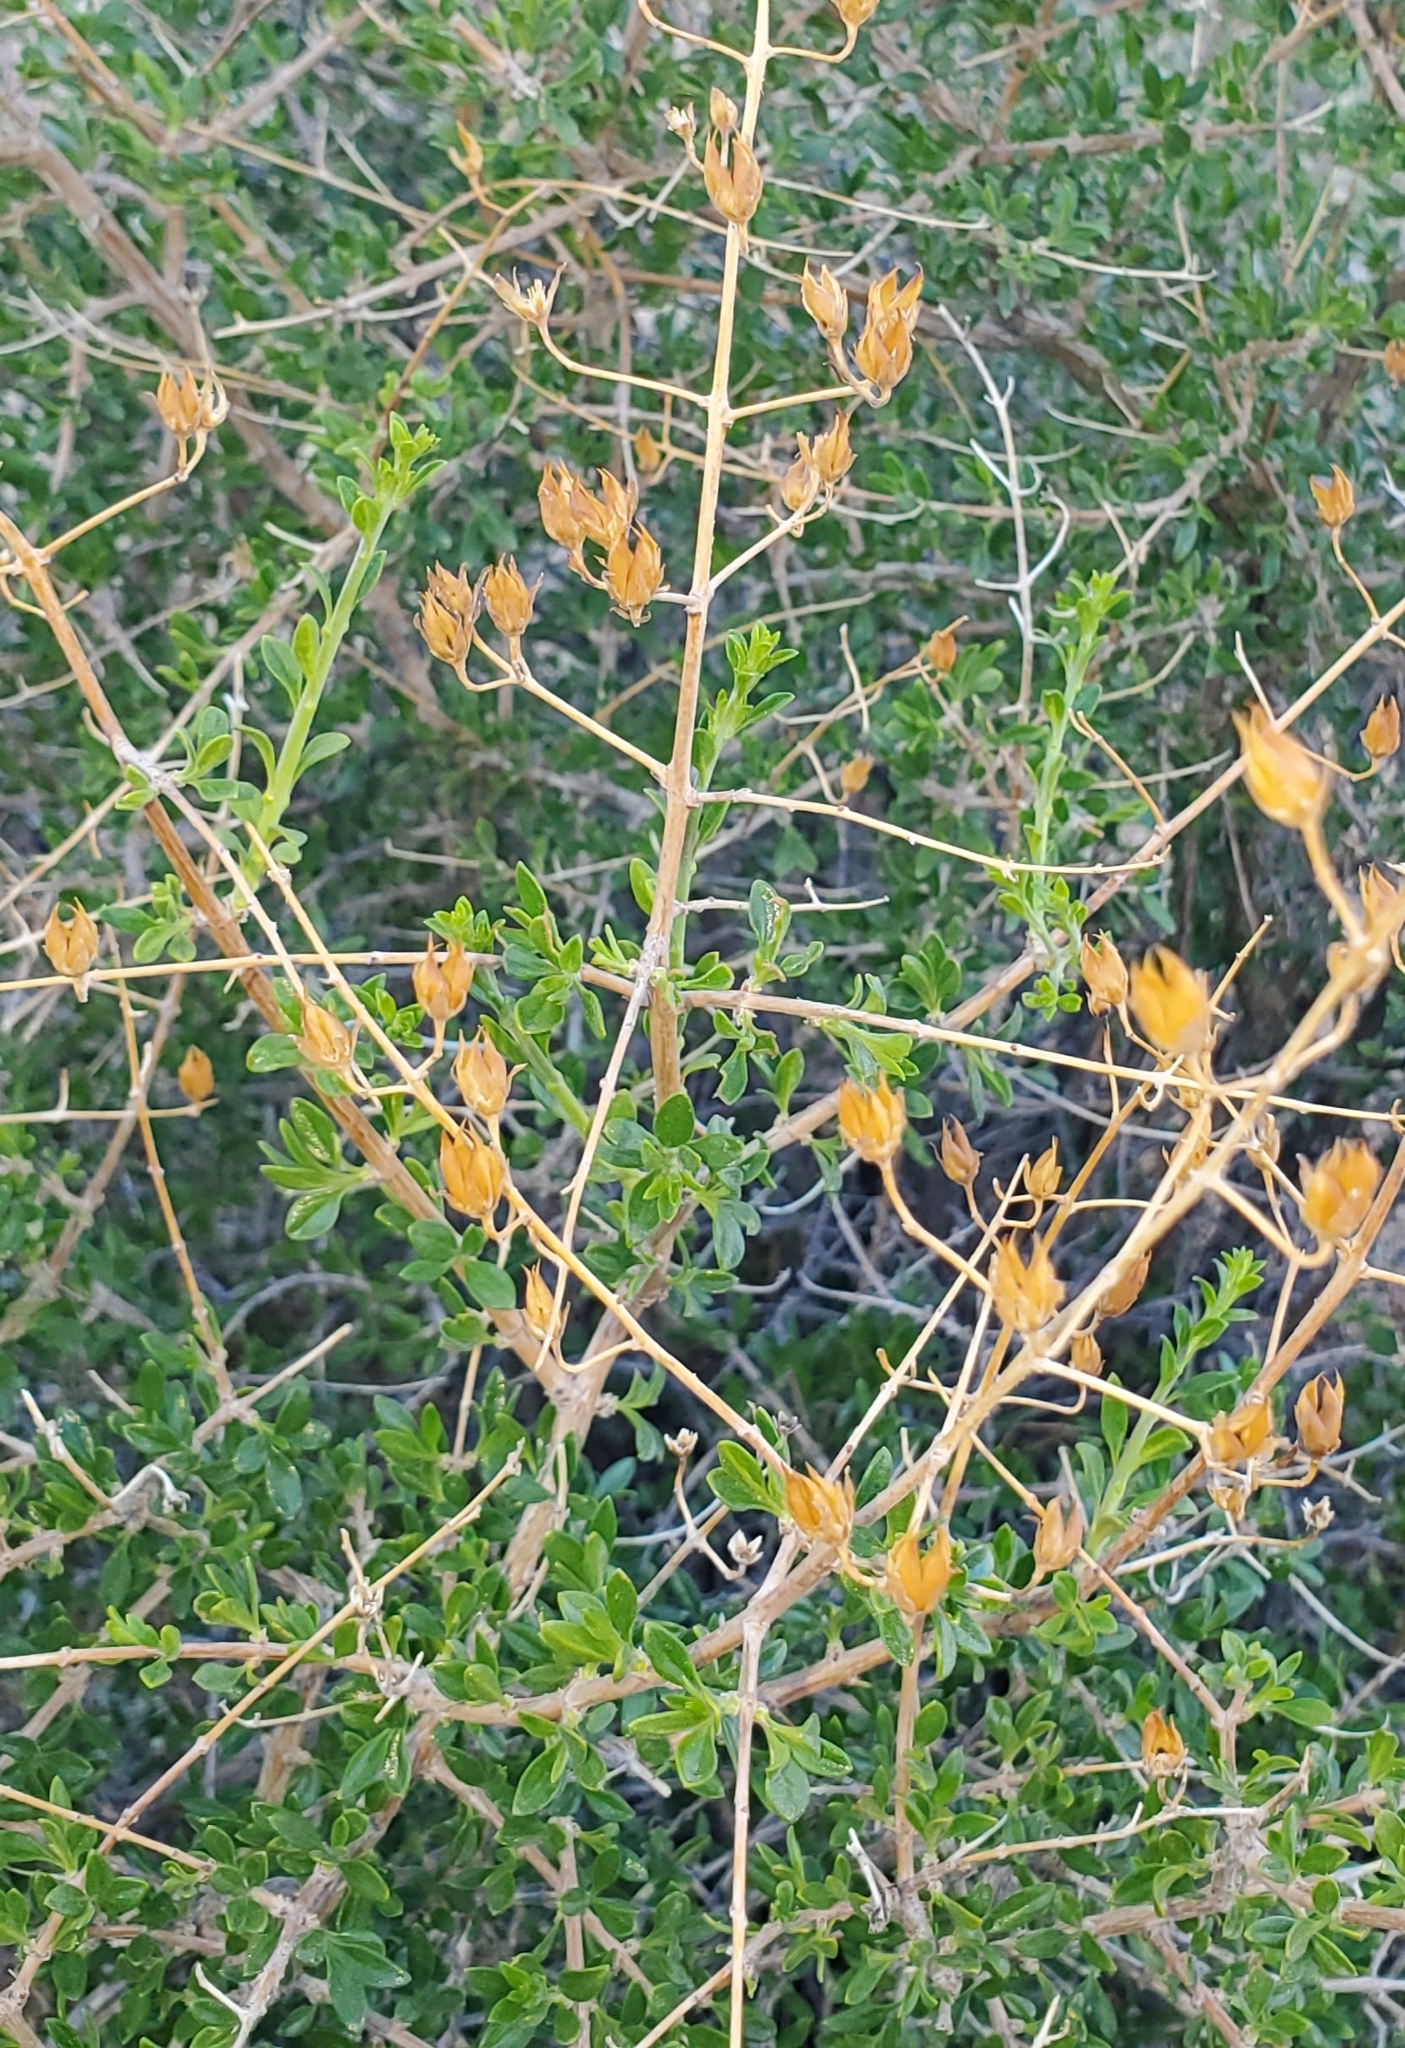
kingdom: Plantae
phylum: Tracheophyta
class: Magnoliopsida
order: Lamiales
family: Plantaginaceae
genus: Keckiella
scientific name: Keckiella antirrhinoides
